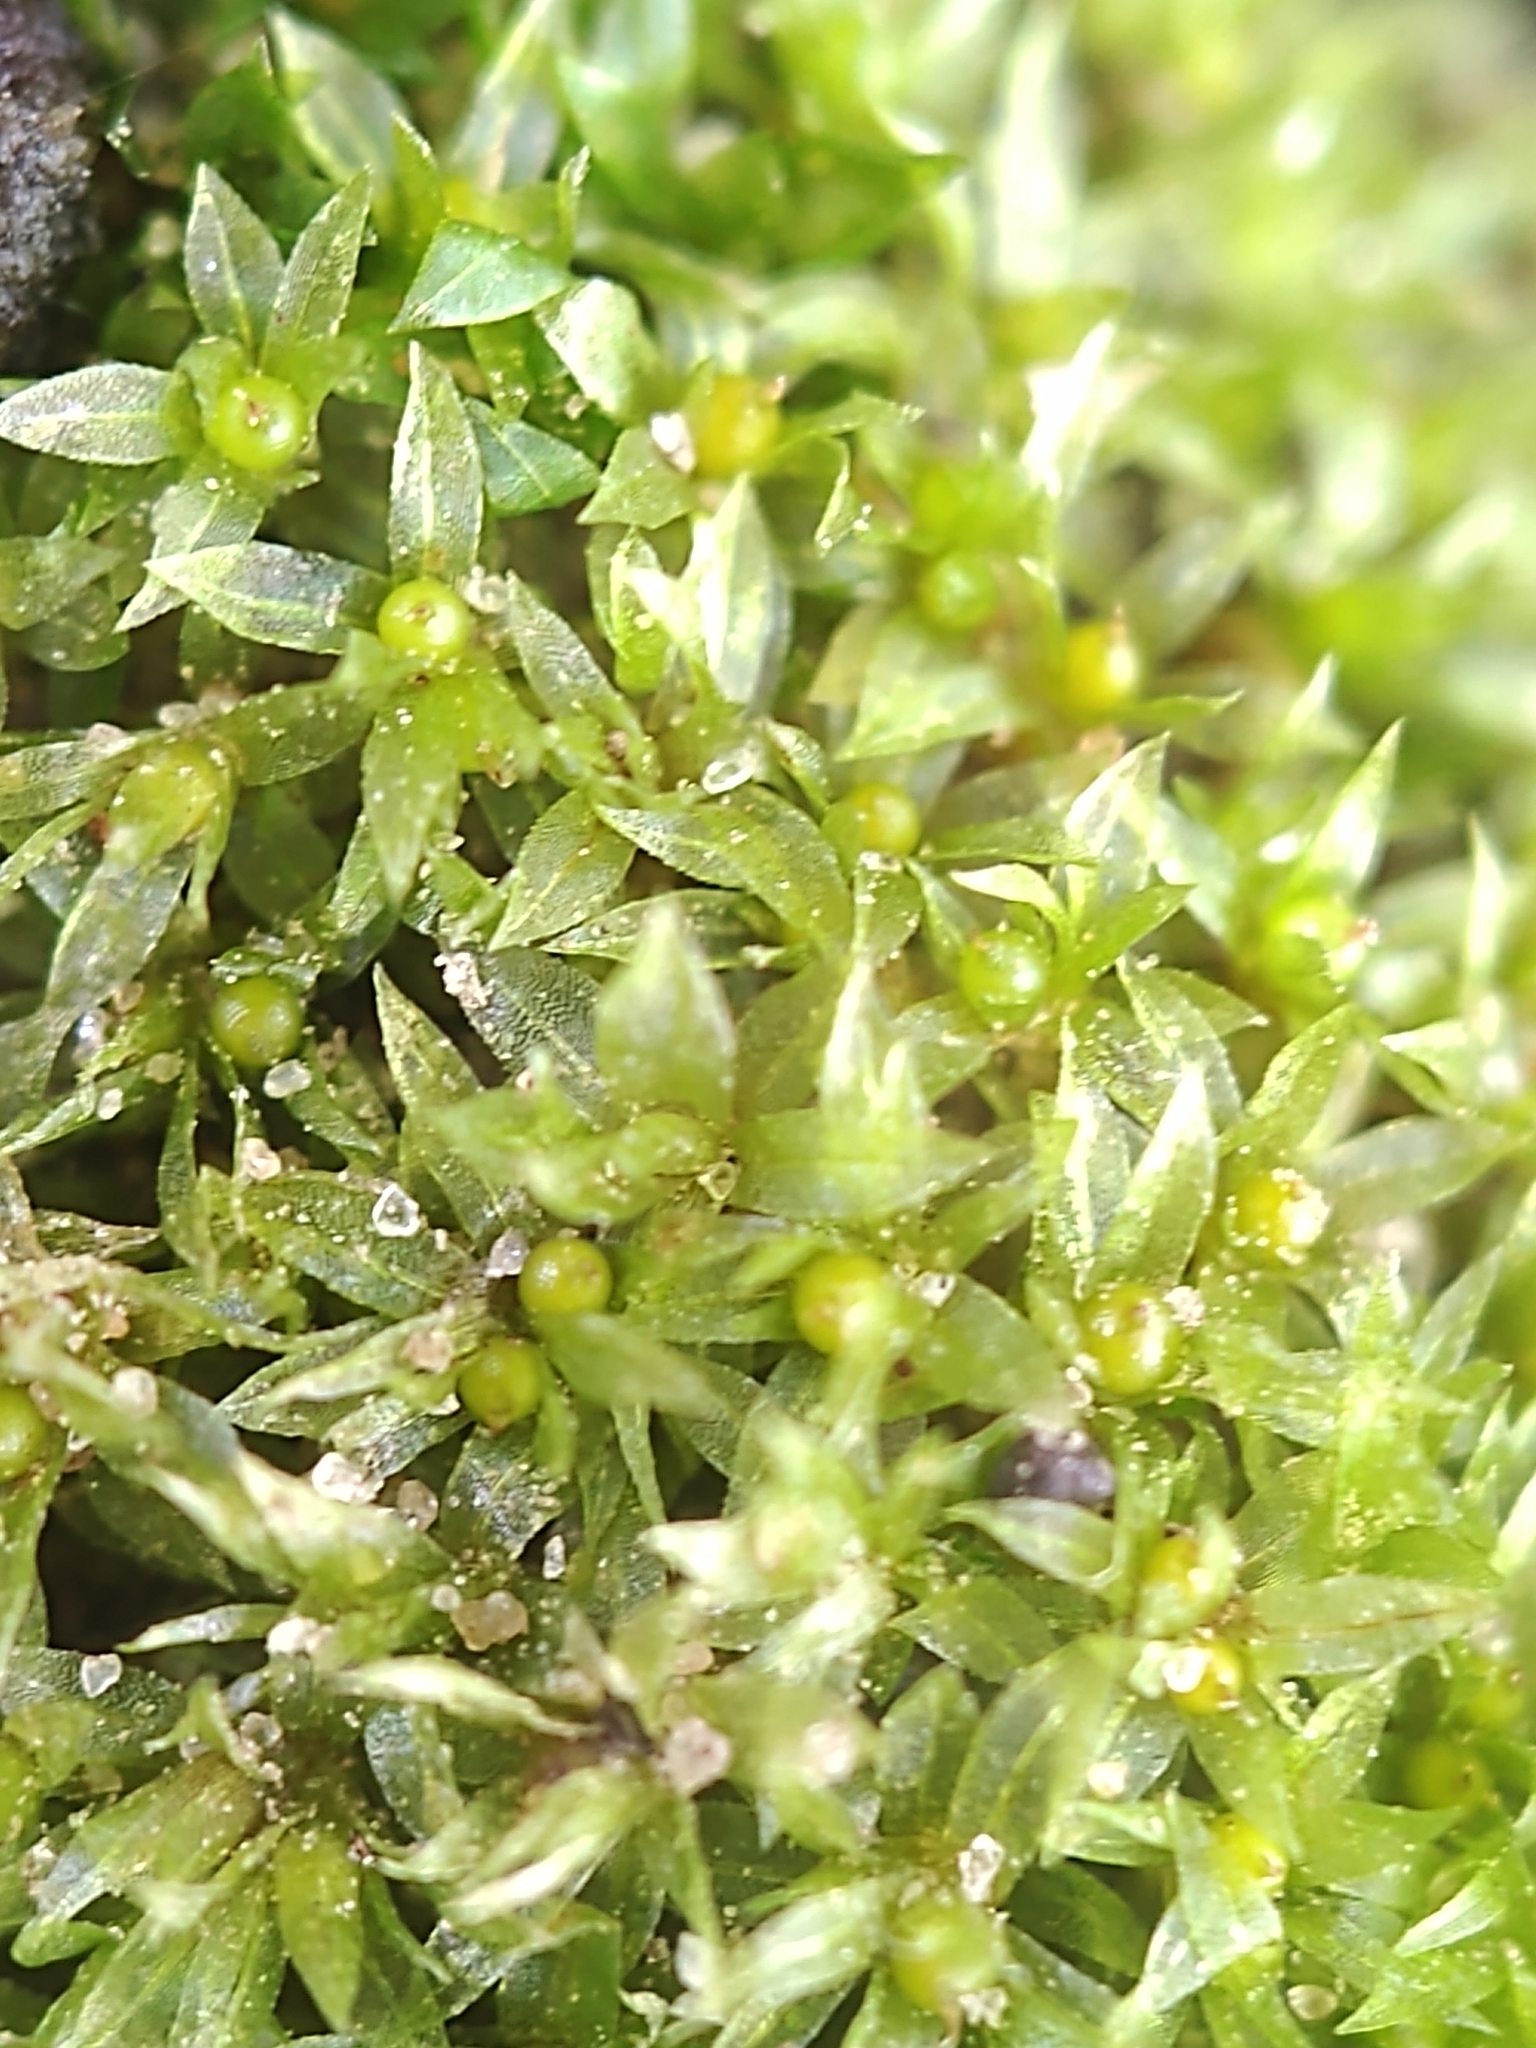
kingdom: Plantae
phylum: Bryophyta
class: Bryopsida
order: Funariales
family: Funariaceae
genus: Physcomitrium
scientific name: Physcomitrium serratum
